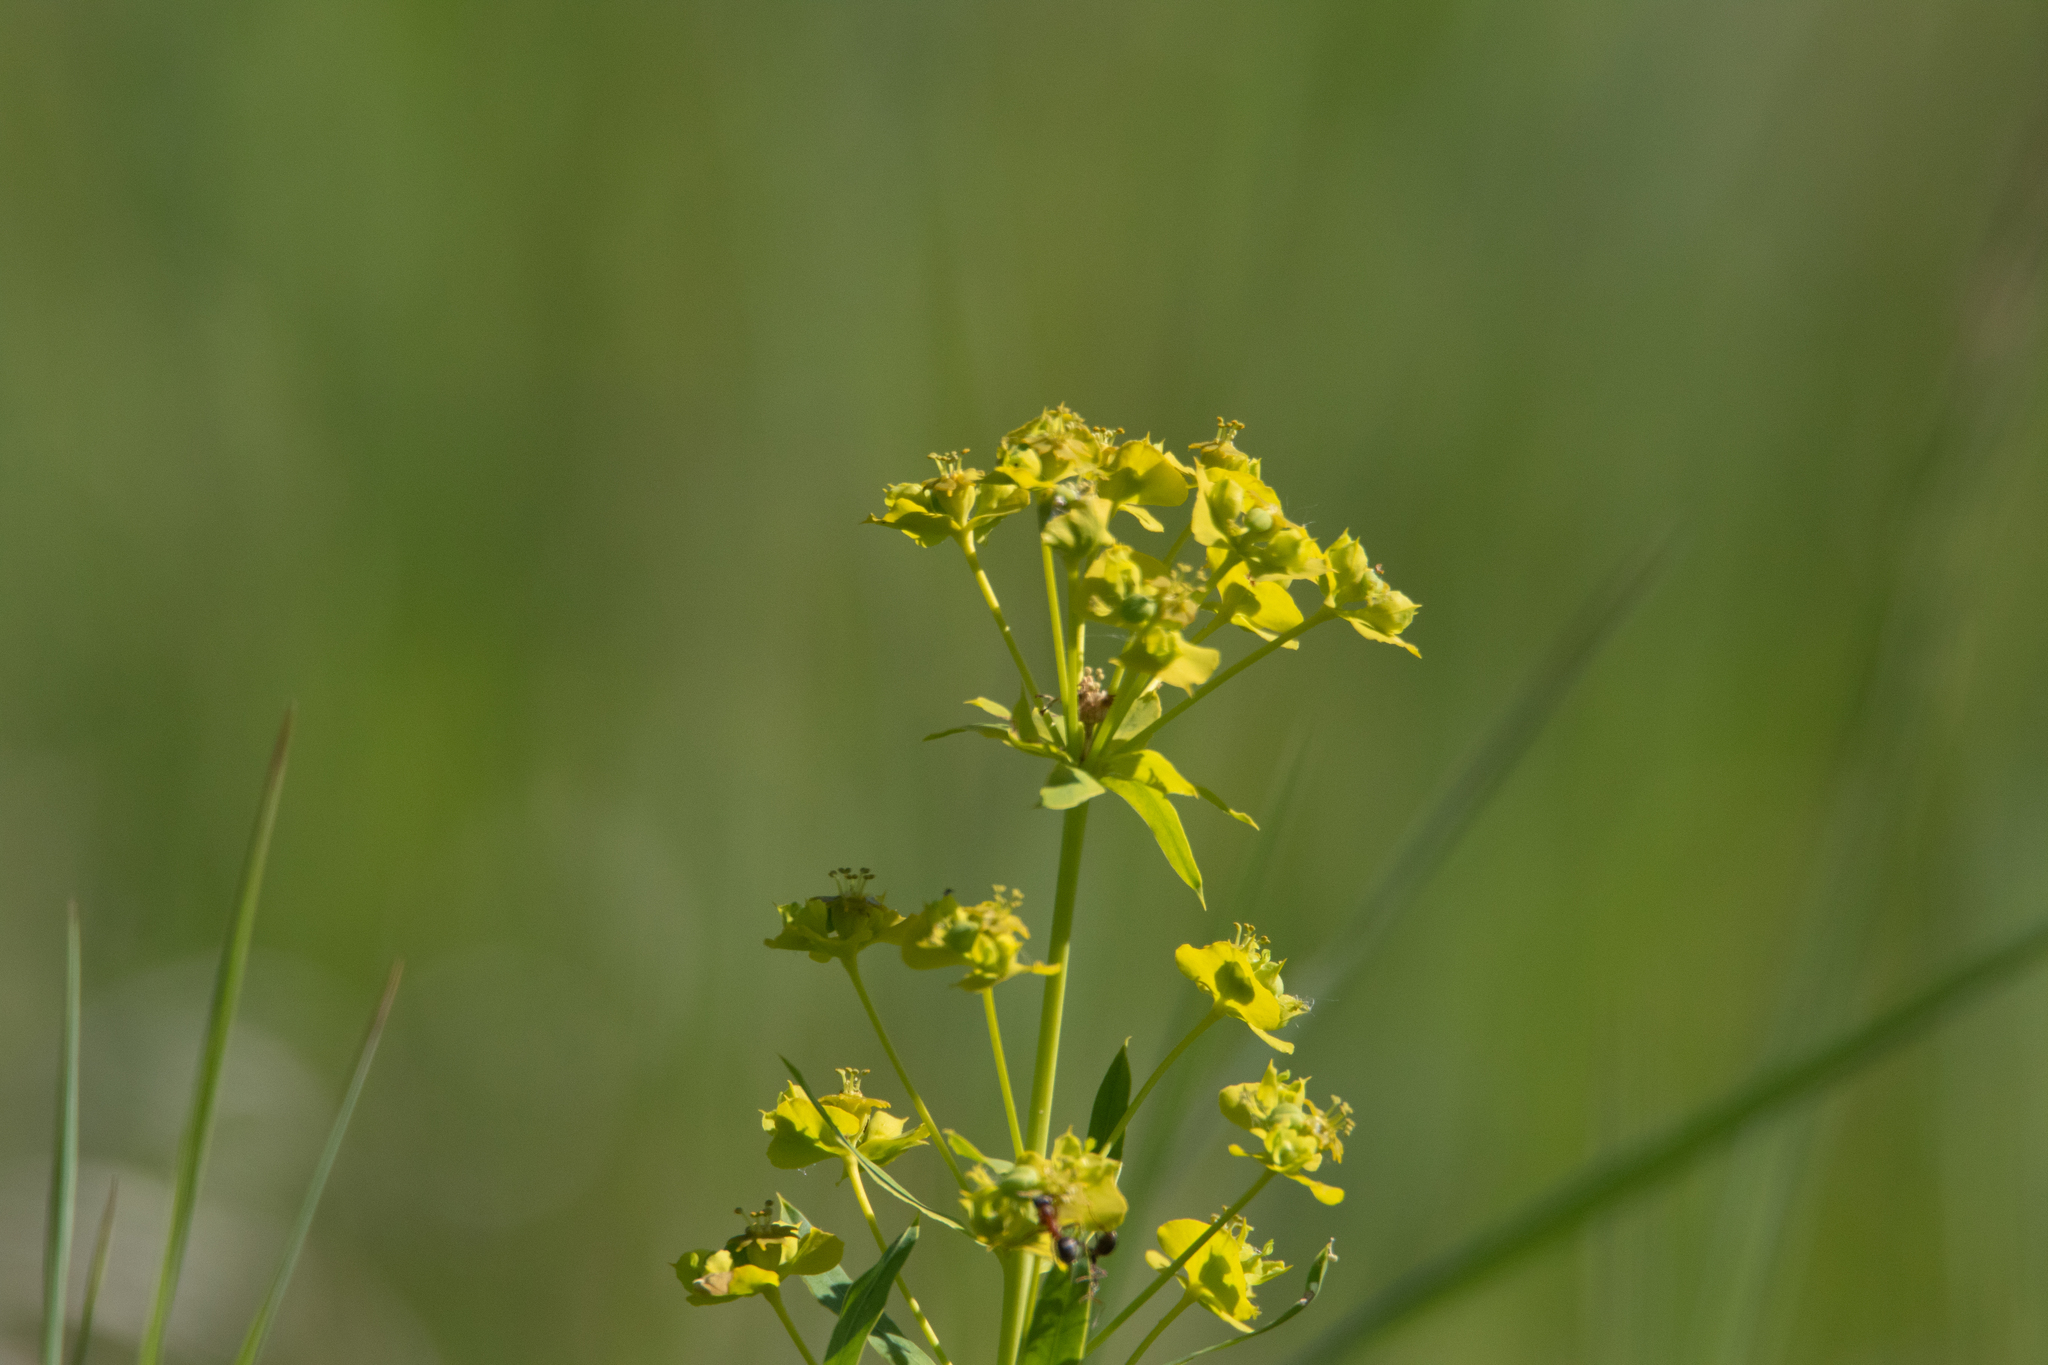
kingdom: Plantae
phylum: Tracheophyta
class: Magnoliopsida
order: Malpighiales
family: Euphorbiaceae
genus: Euphorbia
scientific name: Euphorbia virgata
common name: Leafy spurge
